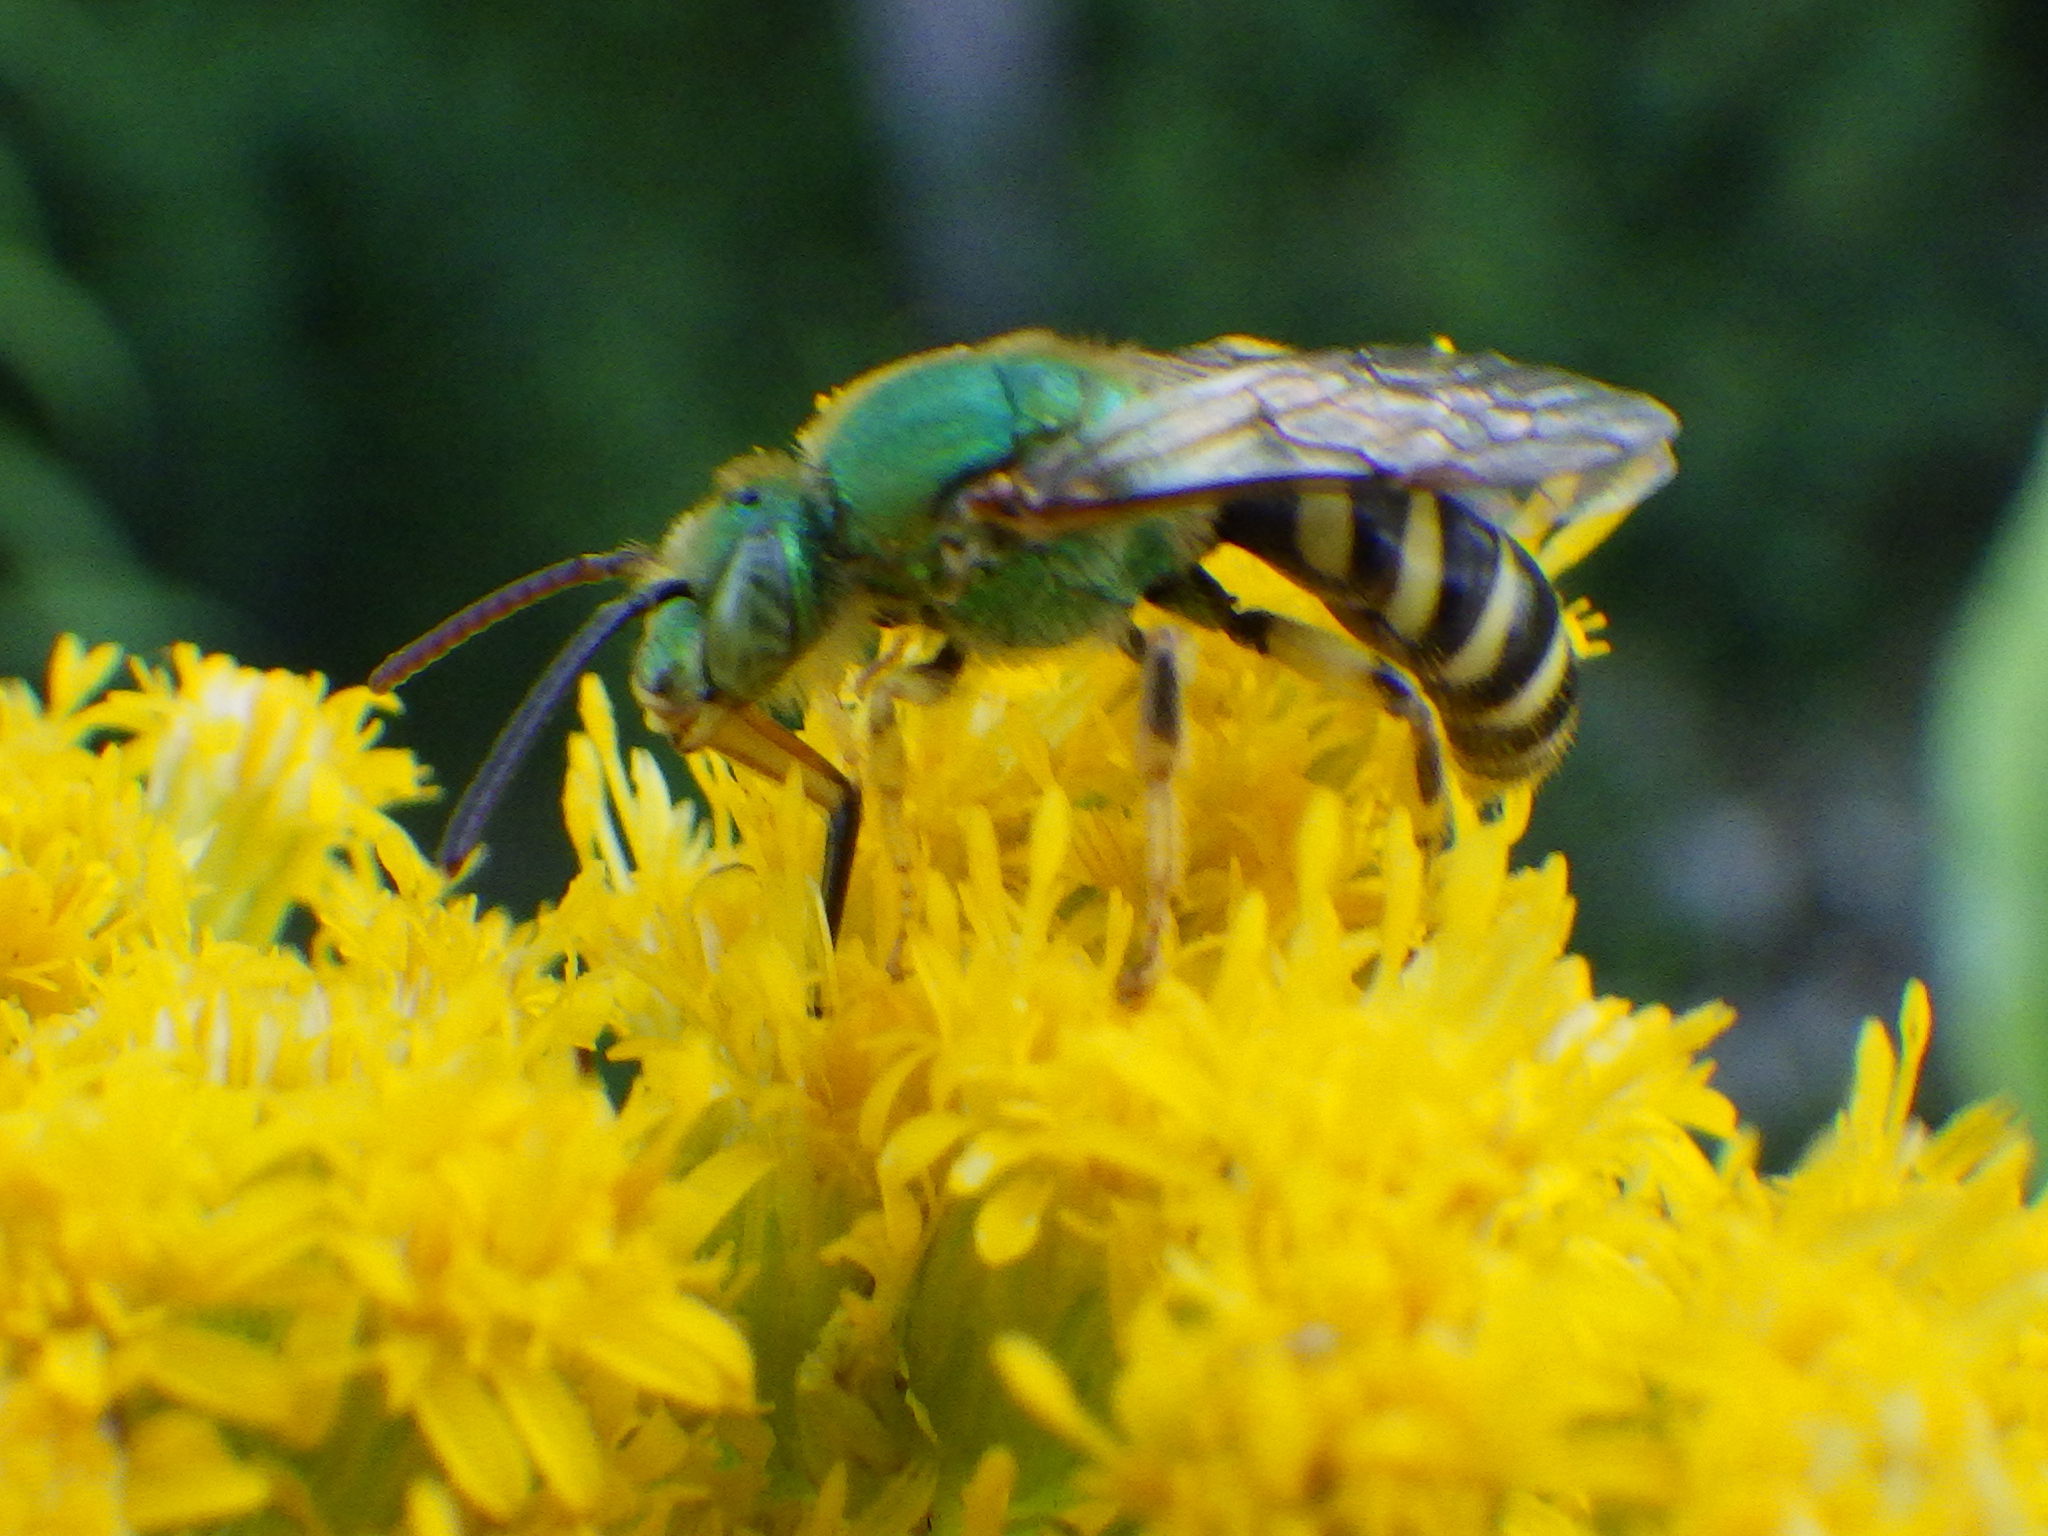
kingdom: Animalia
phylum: Arthropoda
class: Insecta
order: Hymenoptera
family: Halictidae
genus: Agapostemon
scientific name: Agapostemon virescens
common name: Bicolored striped sweat bee
